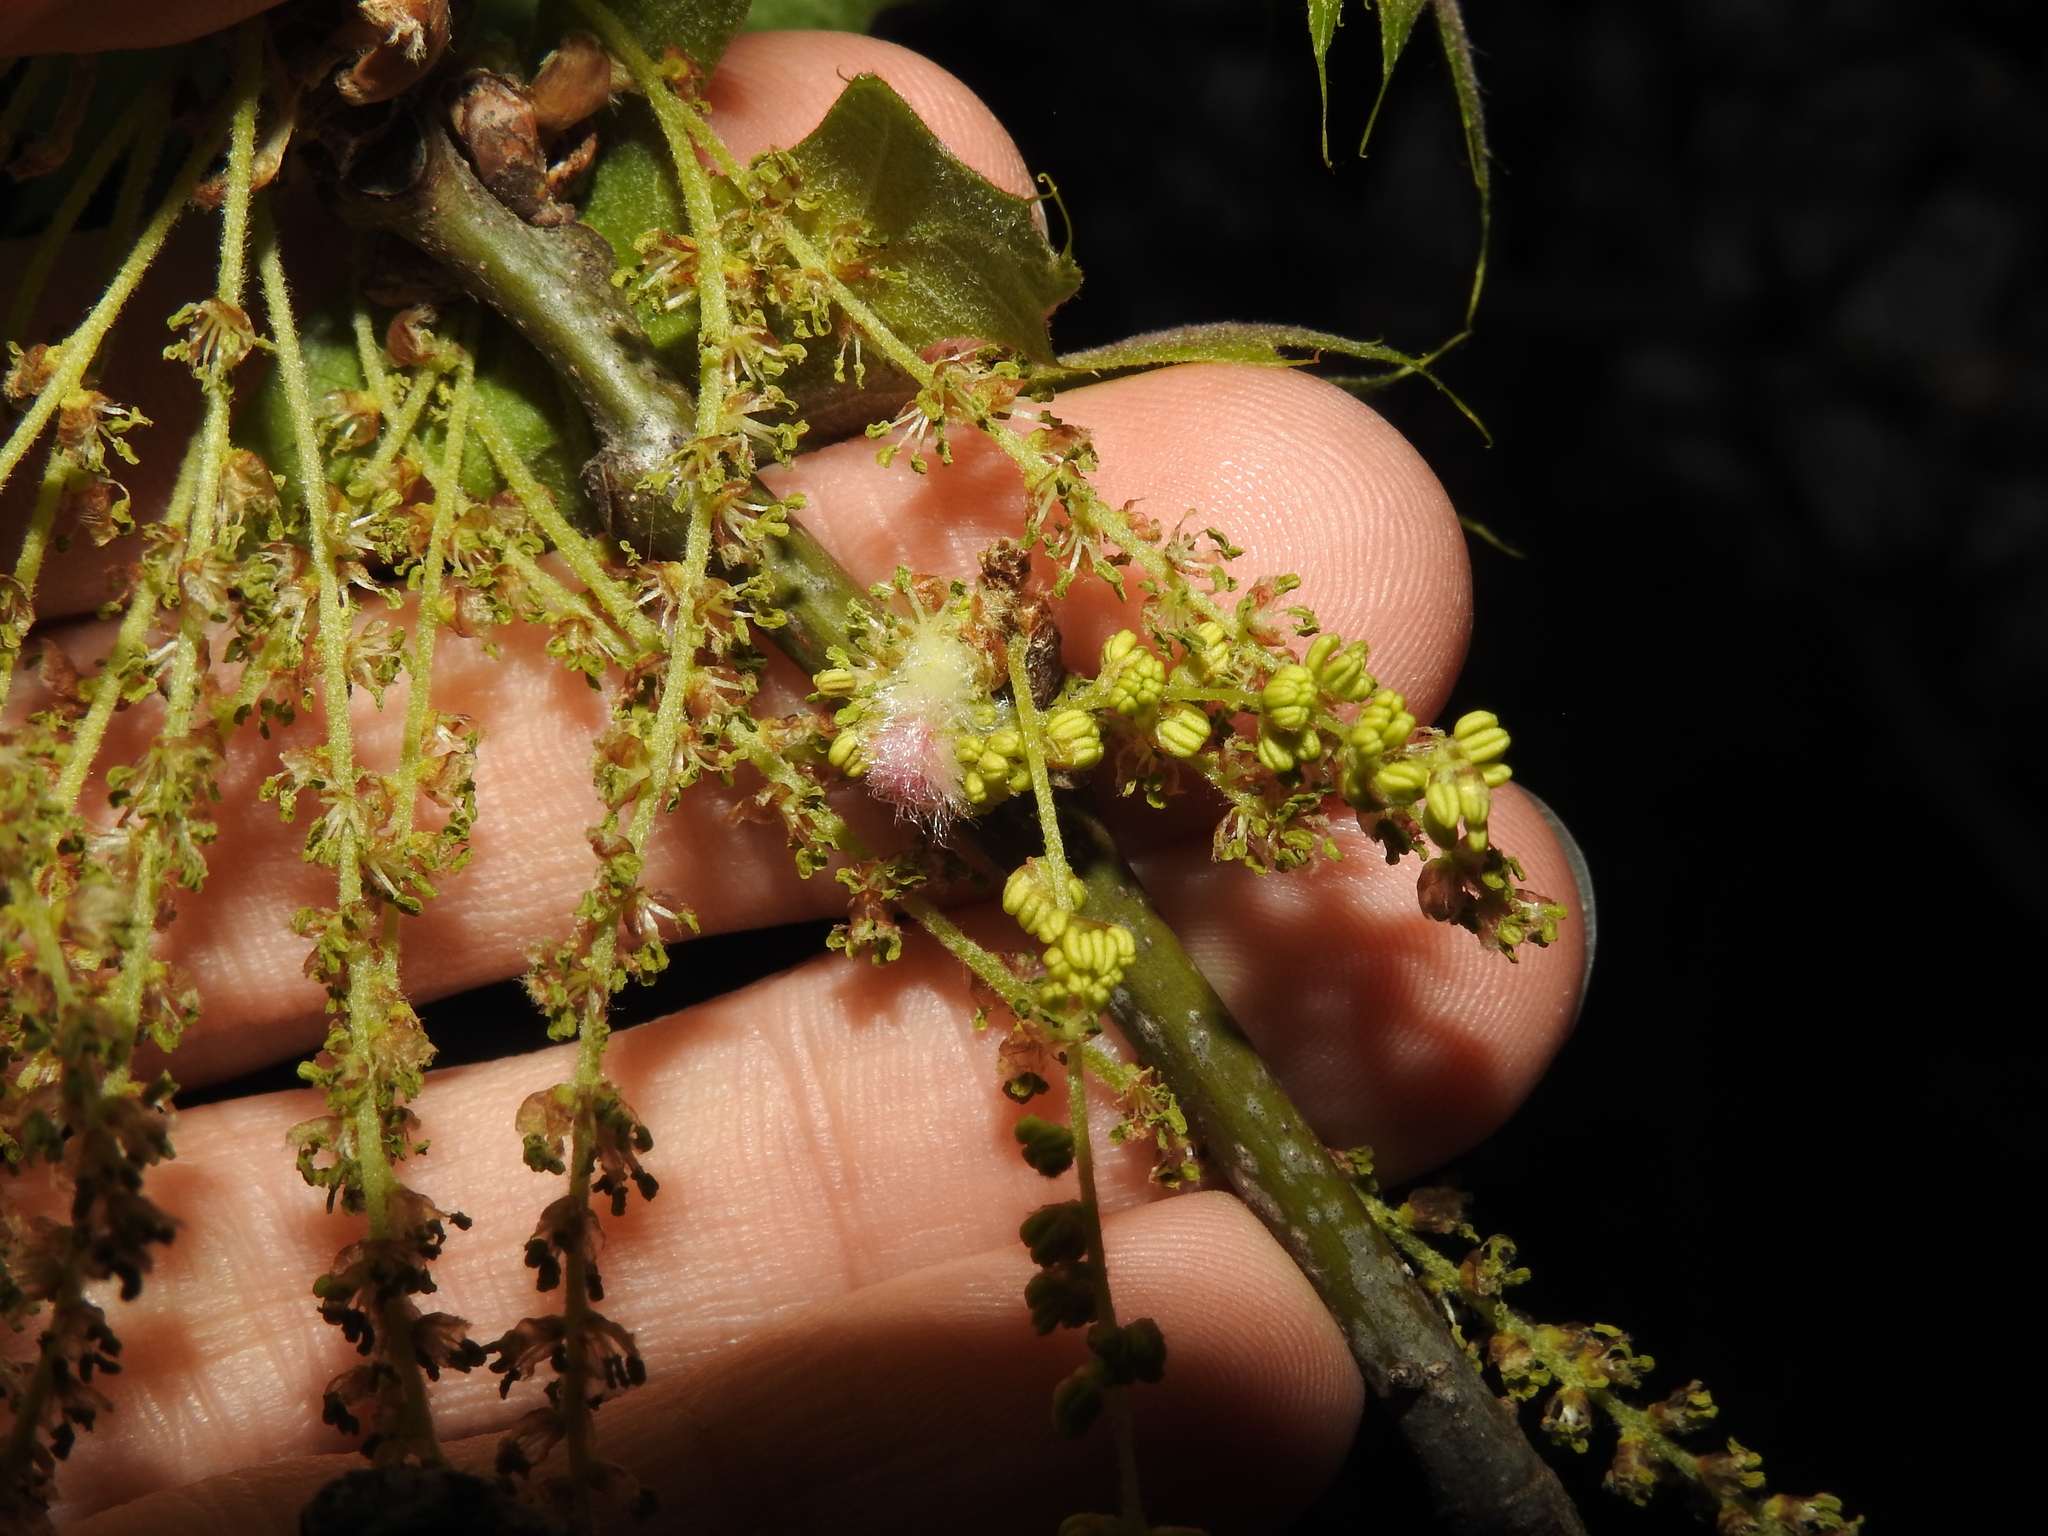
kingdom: Animalia
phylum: Arthropoda
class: Insecta
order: Hymenoptera
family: Cynipidae
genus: Callirhytis
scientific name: Callirhytis
